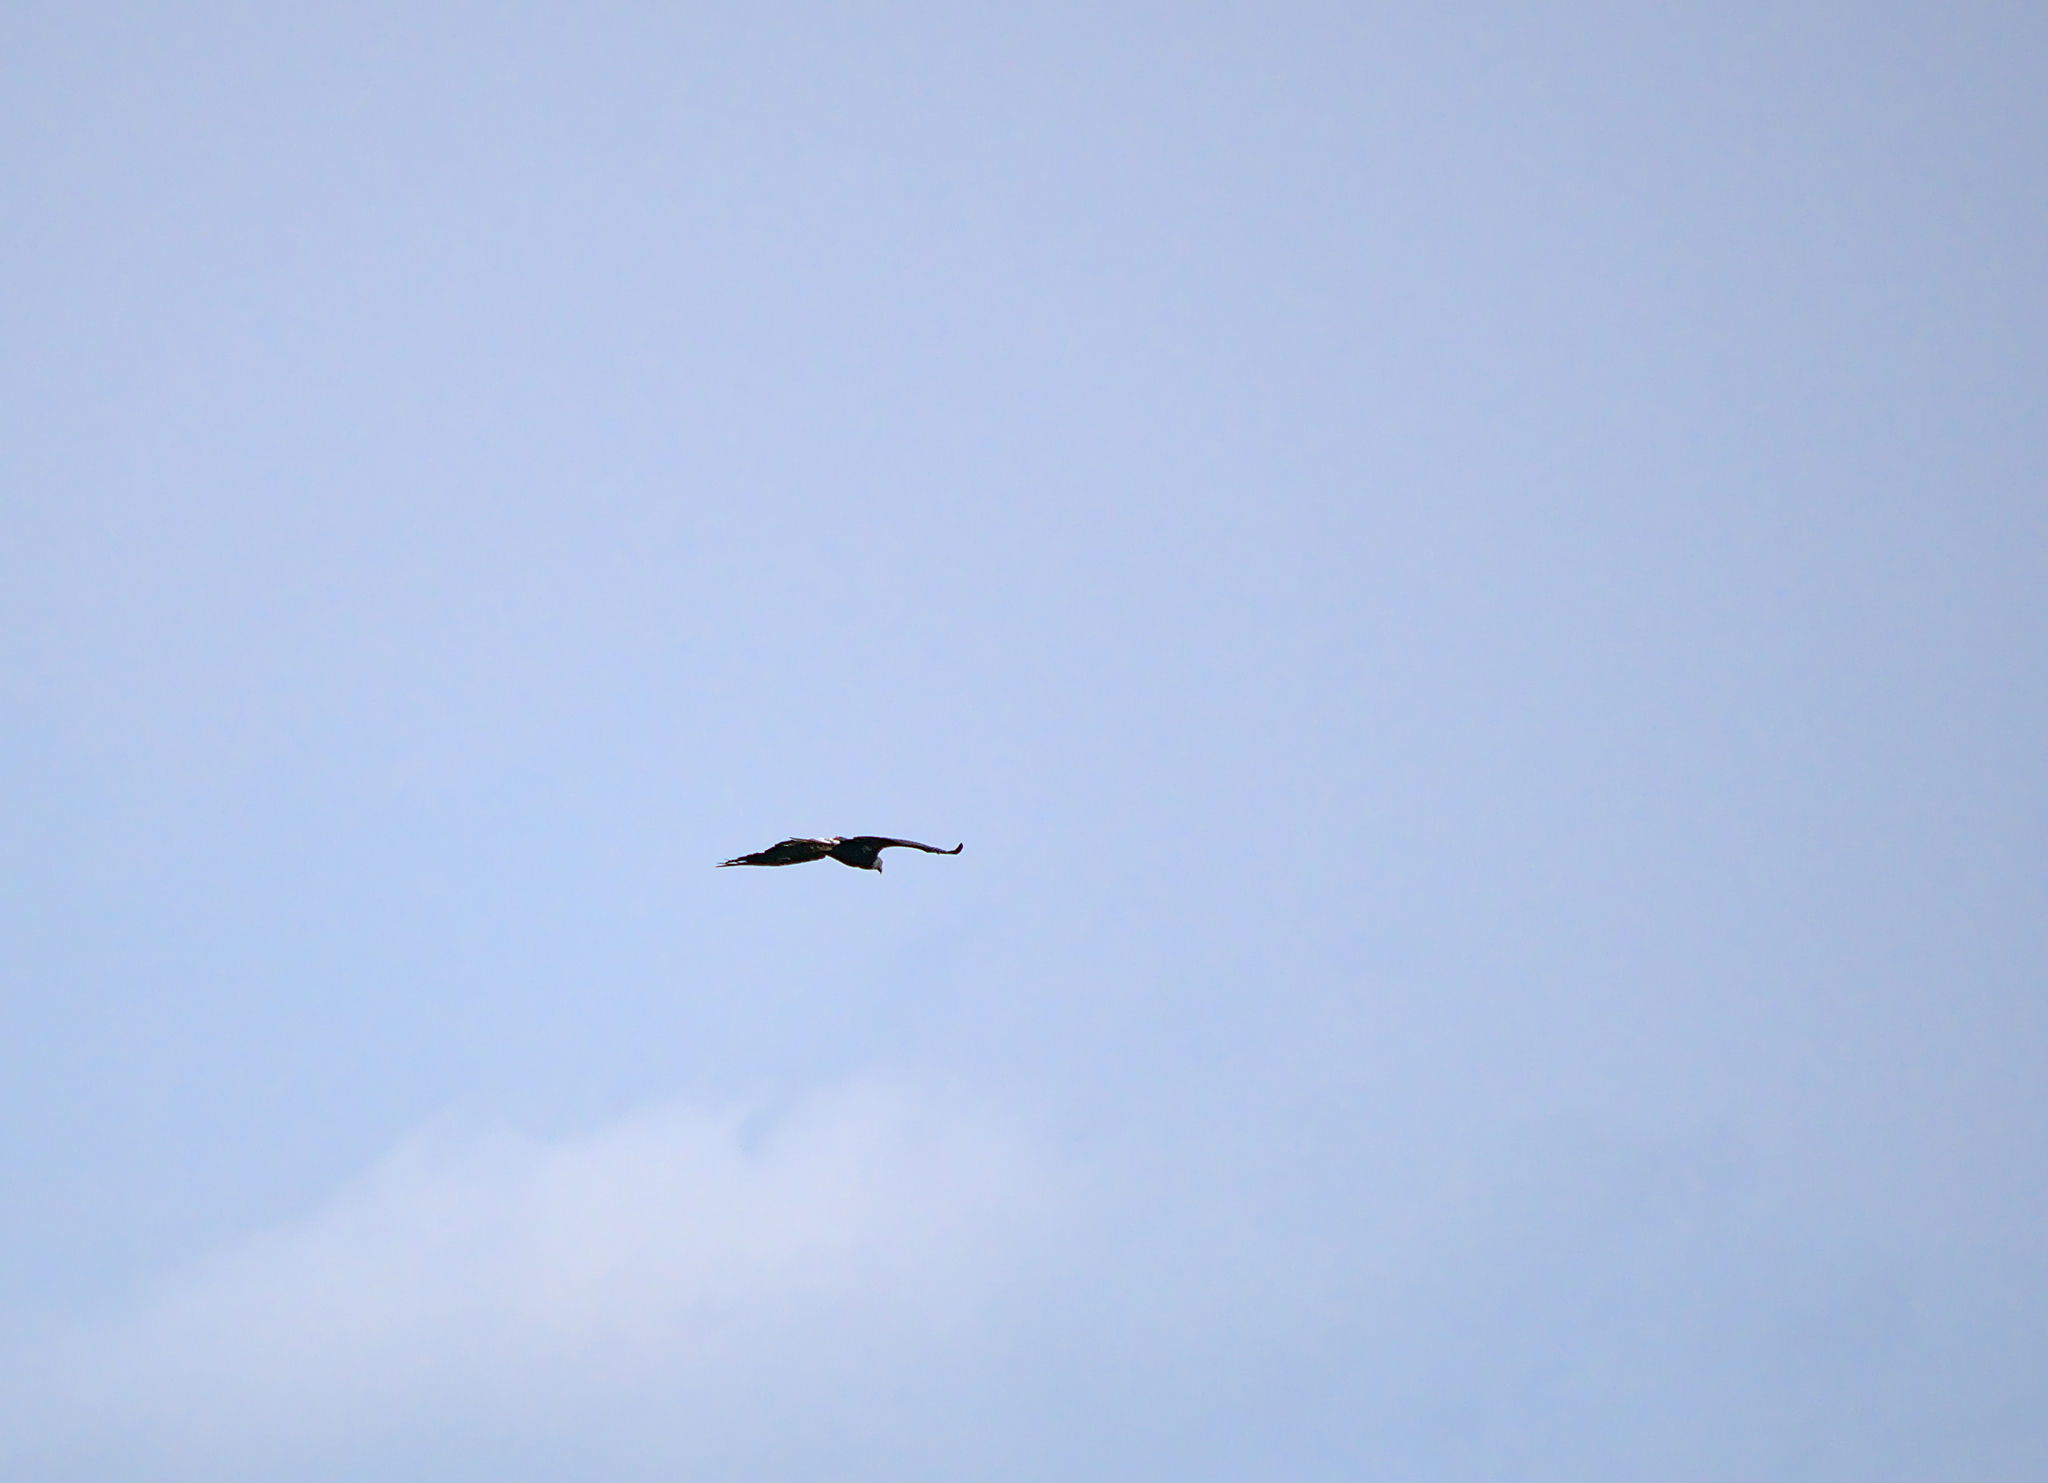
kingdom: Animalia
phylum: Chordata
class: Aves
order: Accipitriformes
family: Accipitridae
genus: Haliaeetus
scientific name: Haliaeetus leucocephalus
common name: Bald eagle
